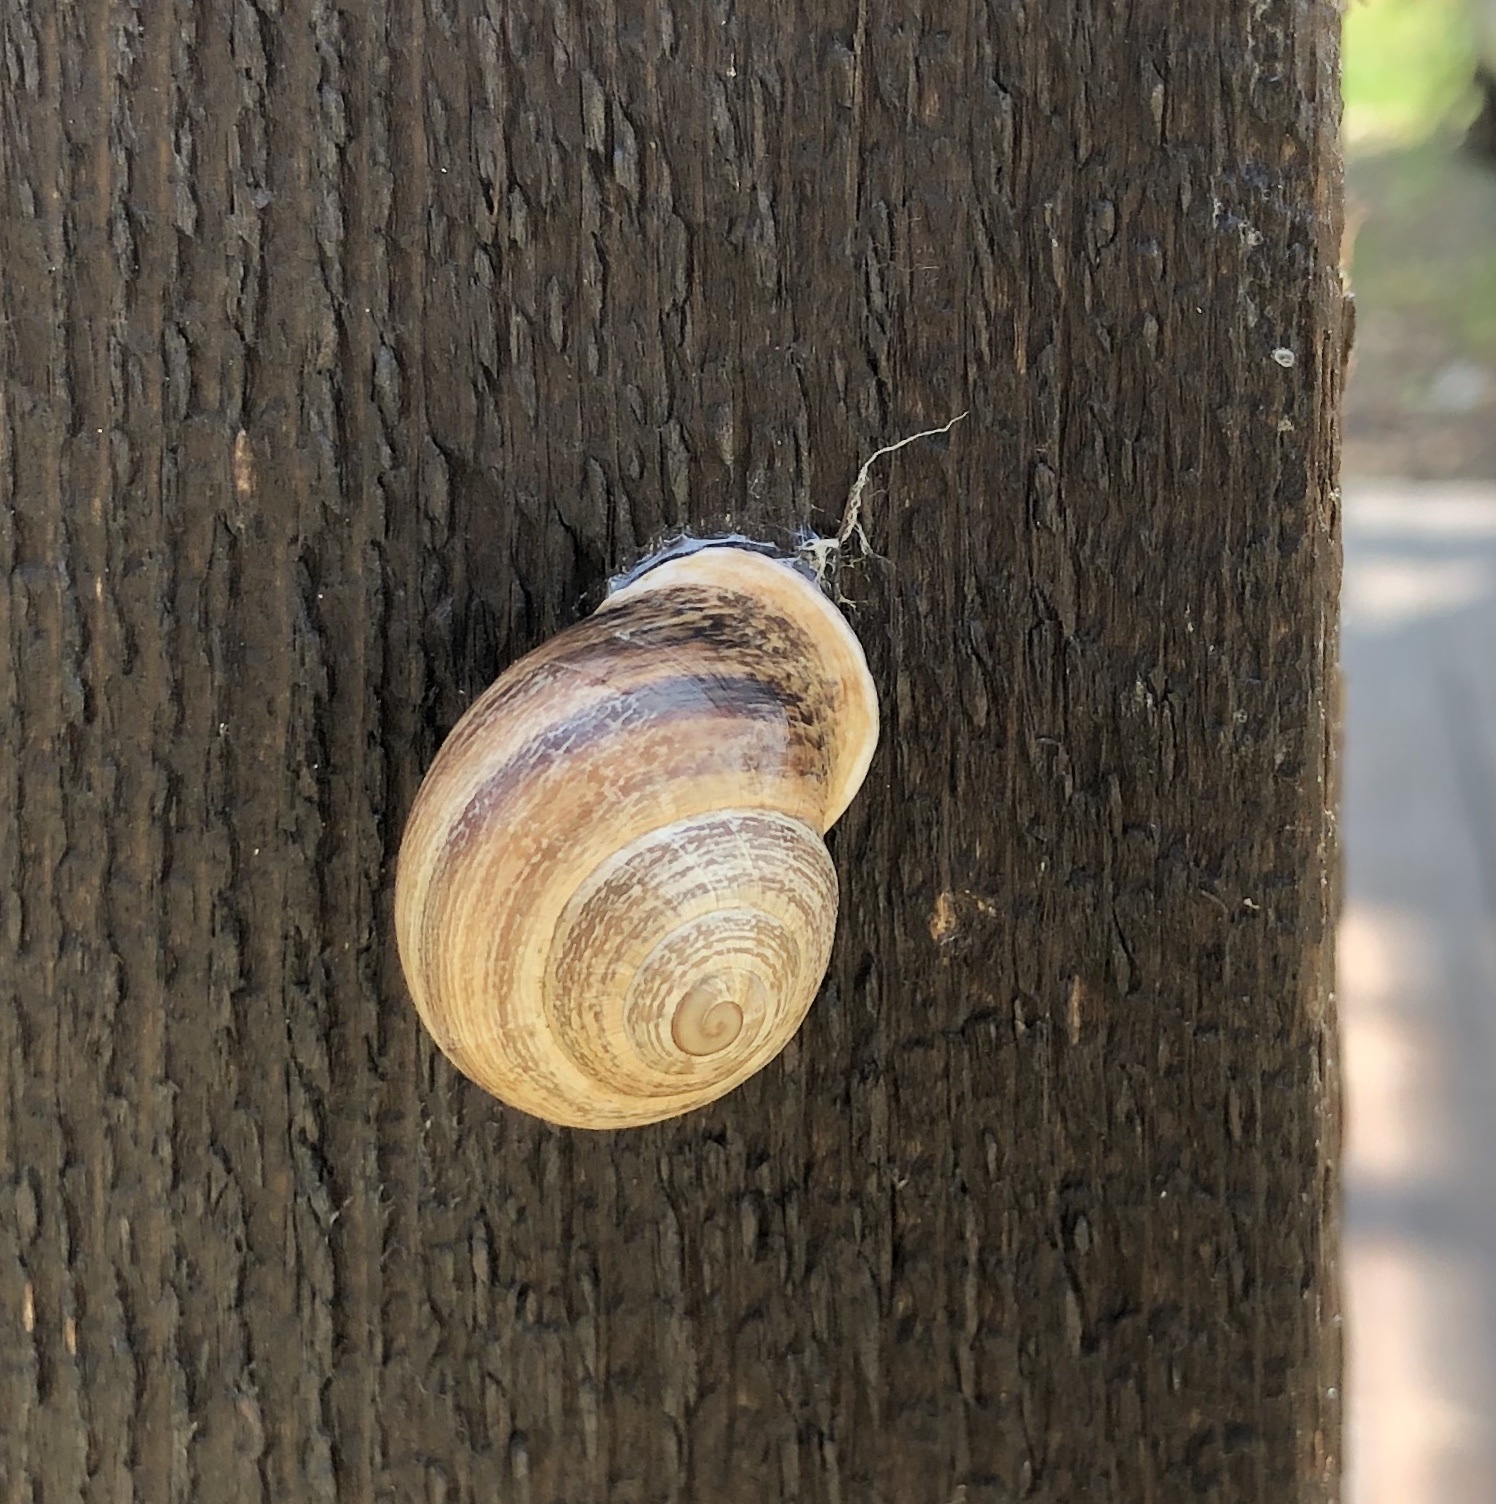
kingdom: Animalia
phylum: Mollusca
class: Gastropoda
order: Stylommatophora
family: Helicidae
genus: Otala
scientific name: Otala lactea
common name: Milk snail
